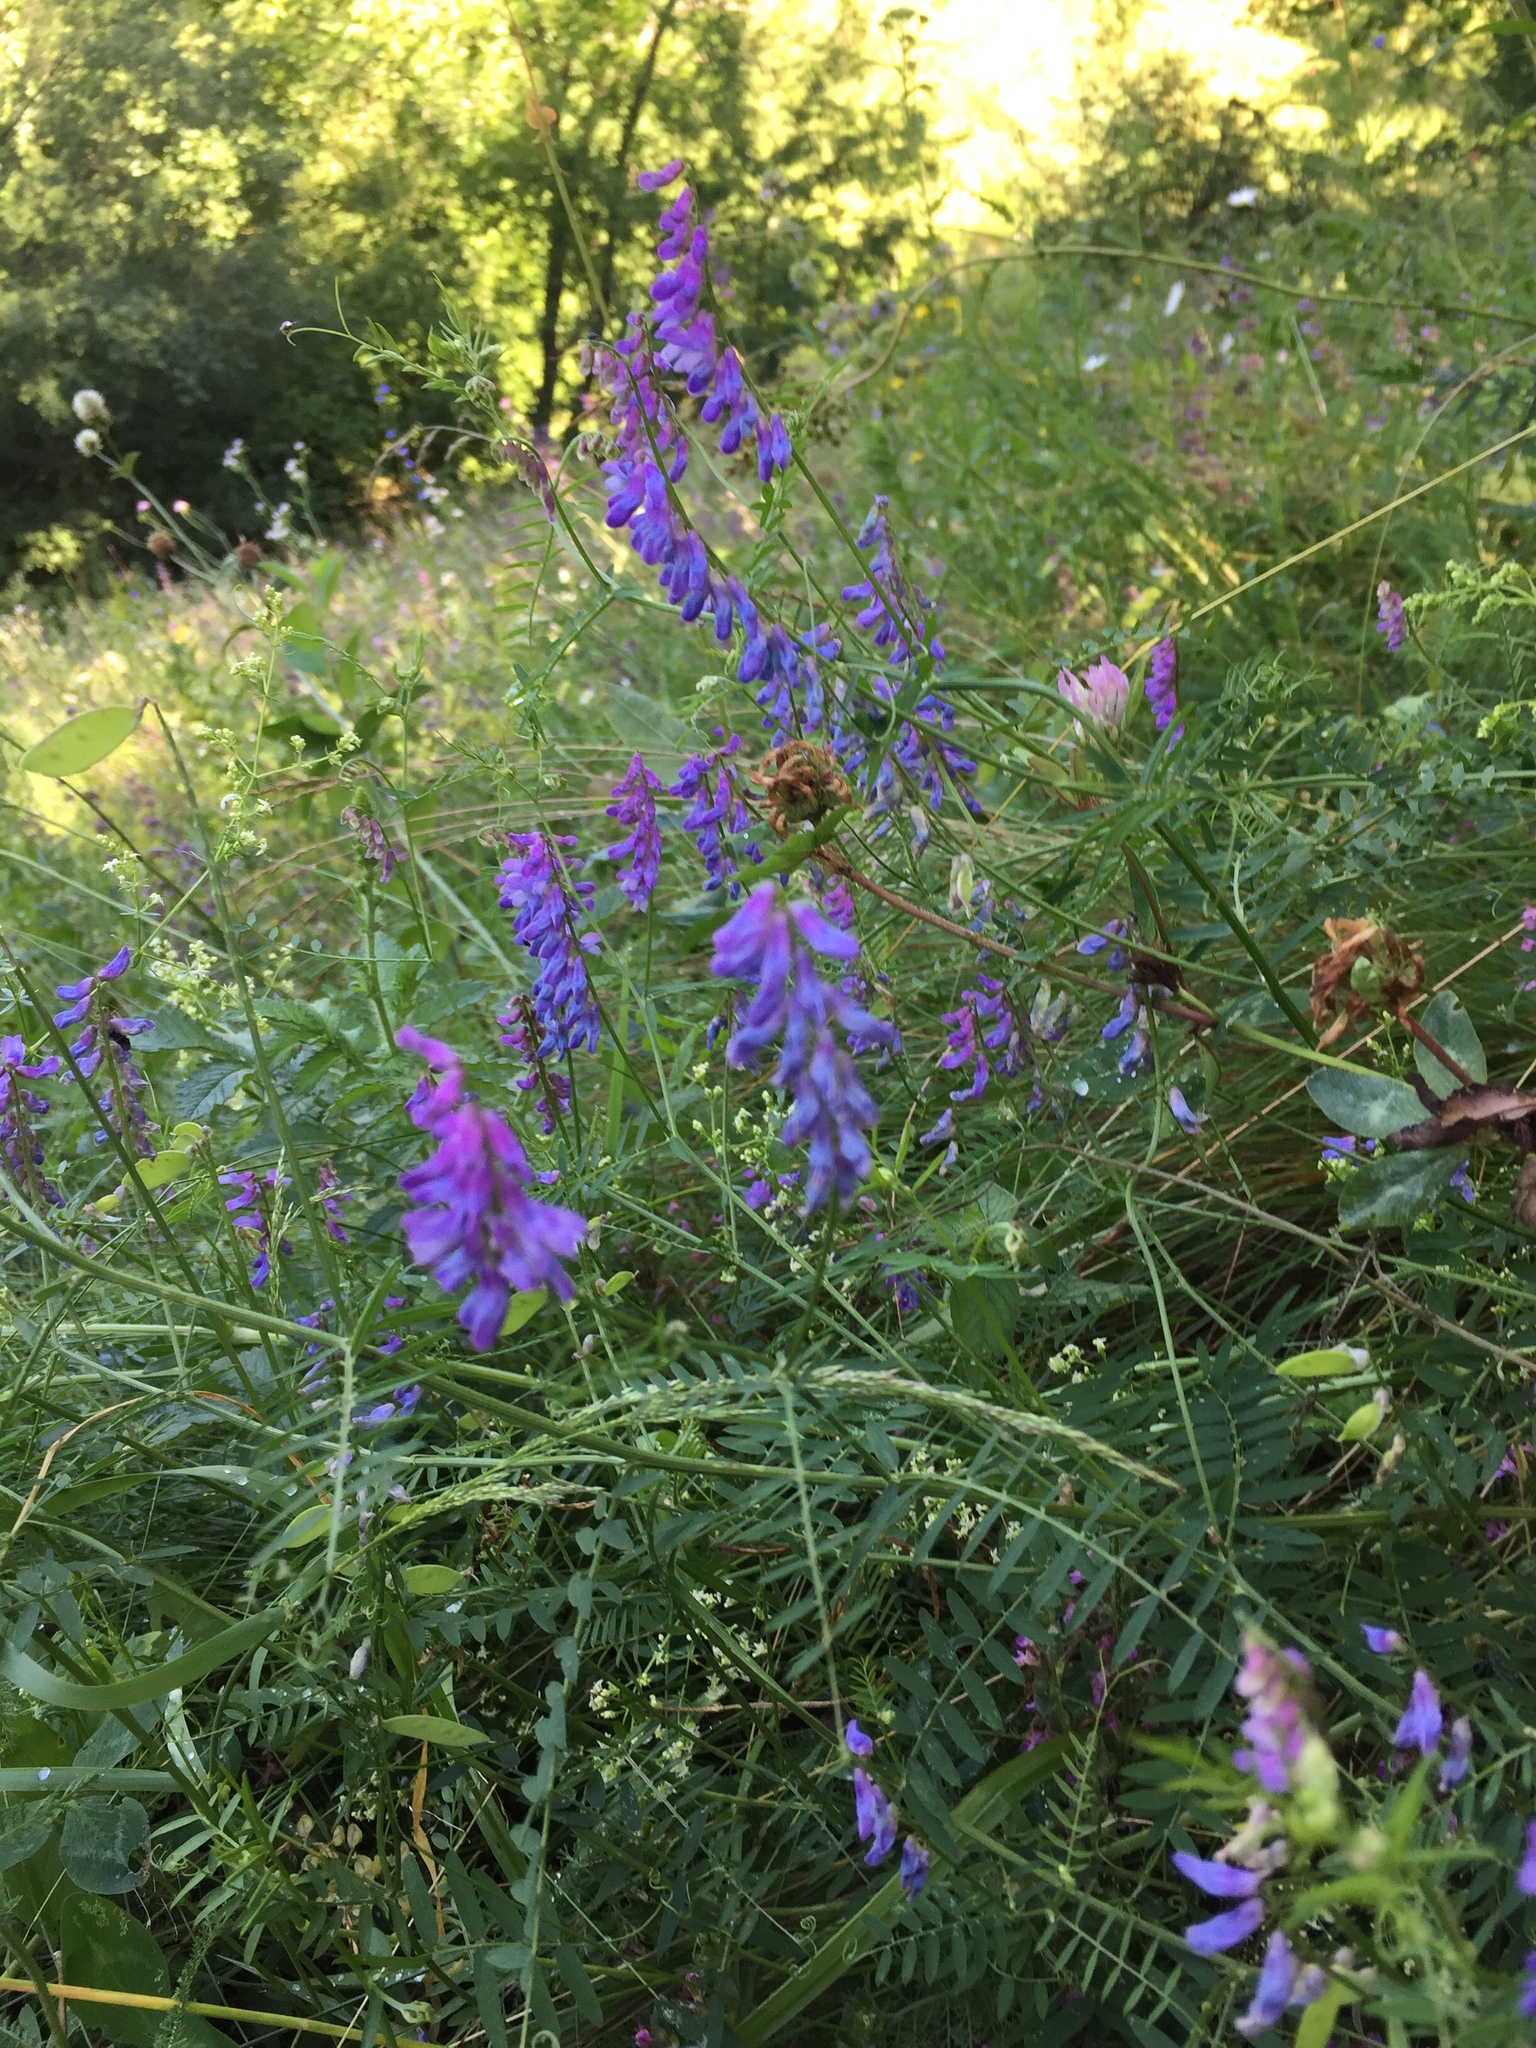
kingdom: Plantae
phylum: Tracheophyta
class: Magnoliopsida
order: Fabales
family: Fabaceae
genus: Vicia
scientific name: Vicia cracca
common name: Bird vetch
